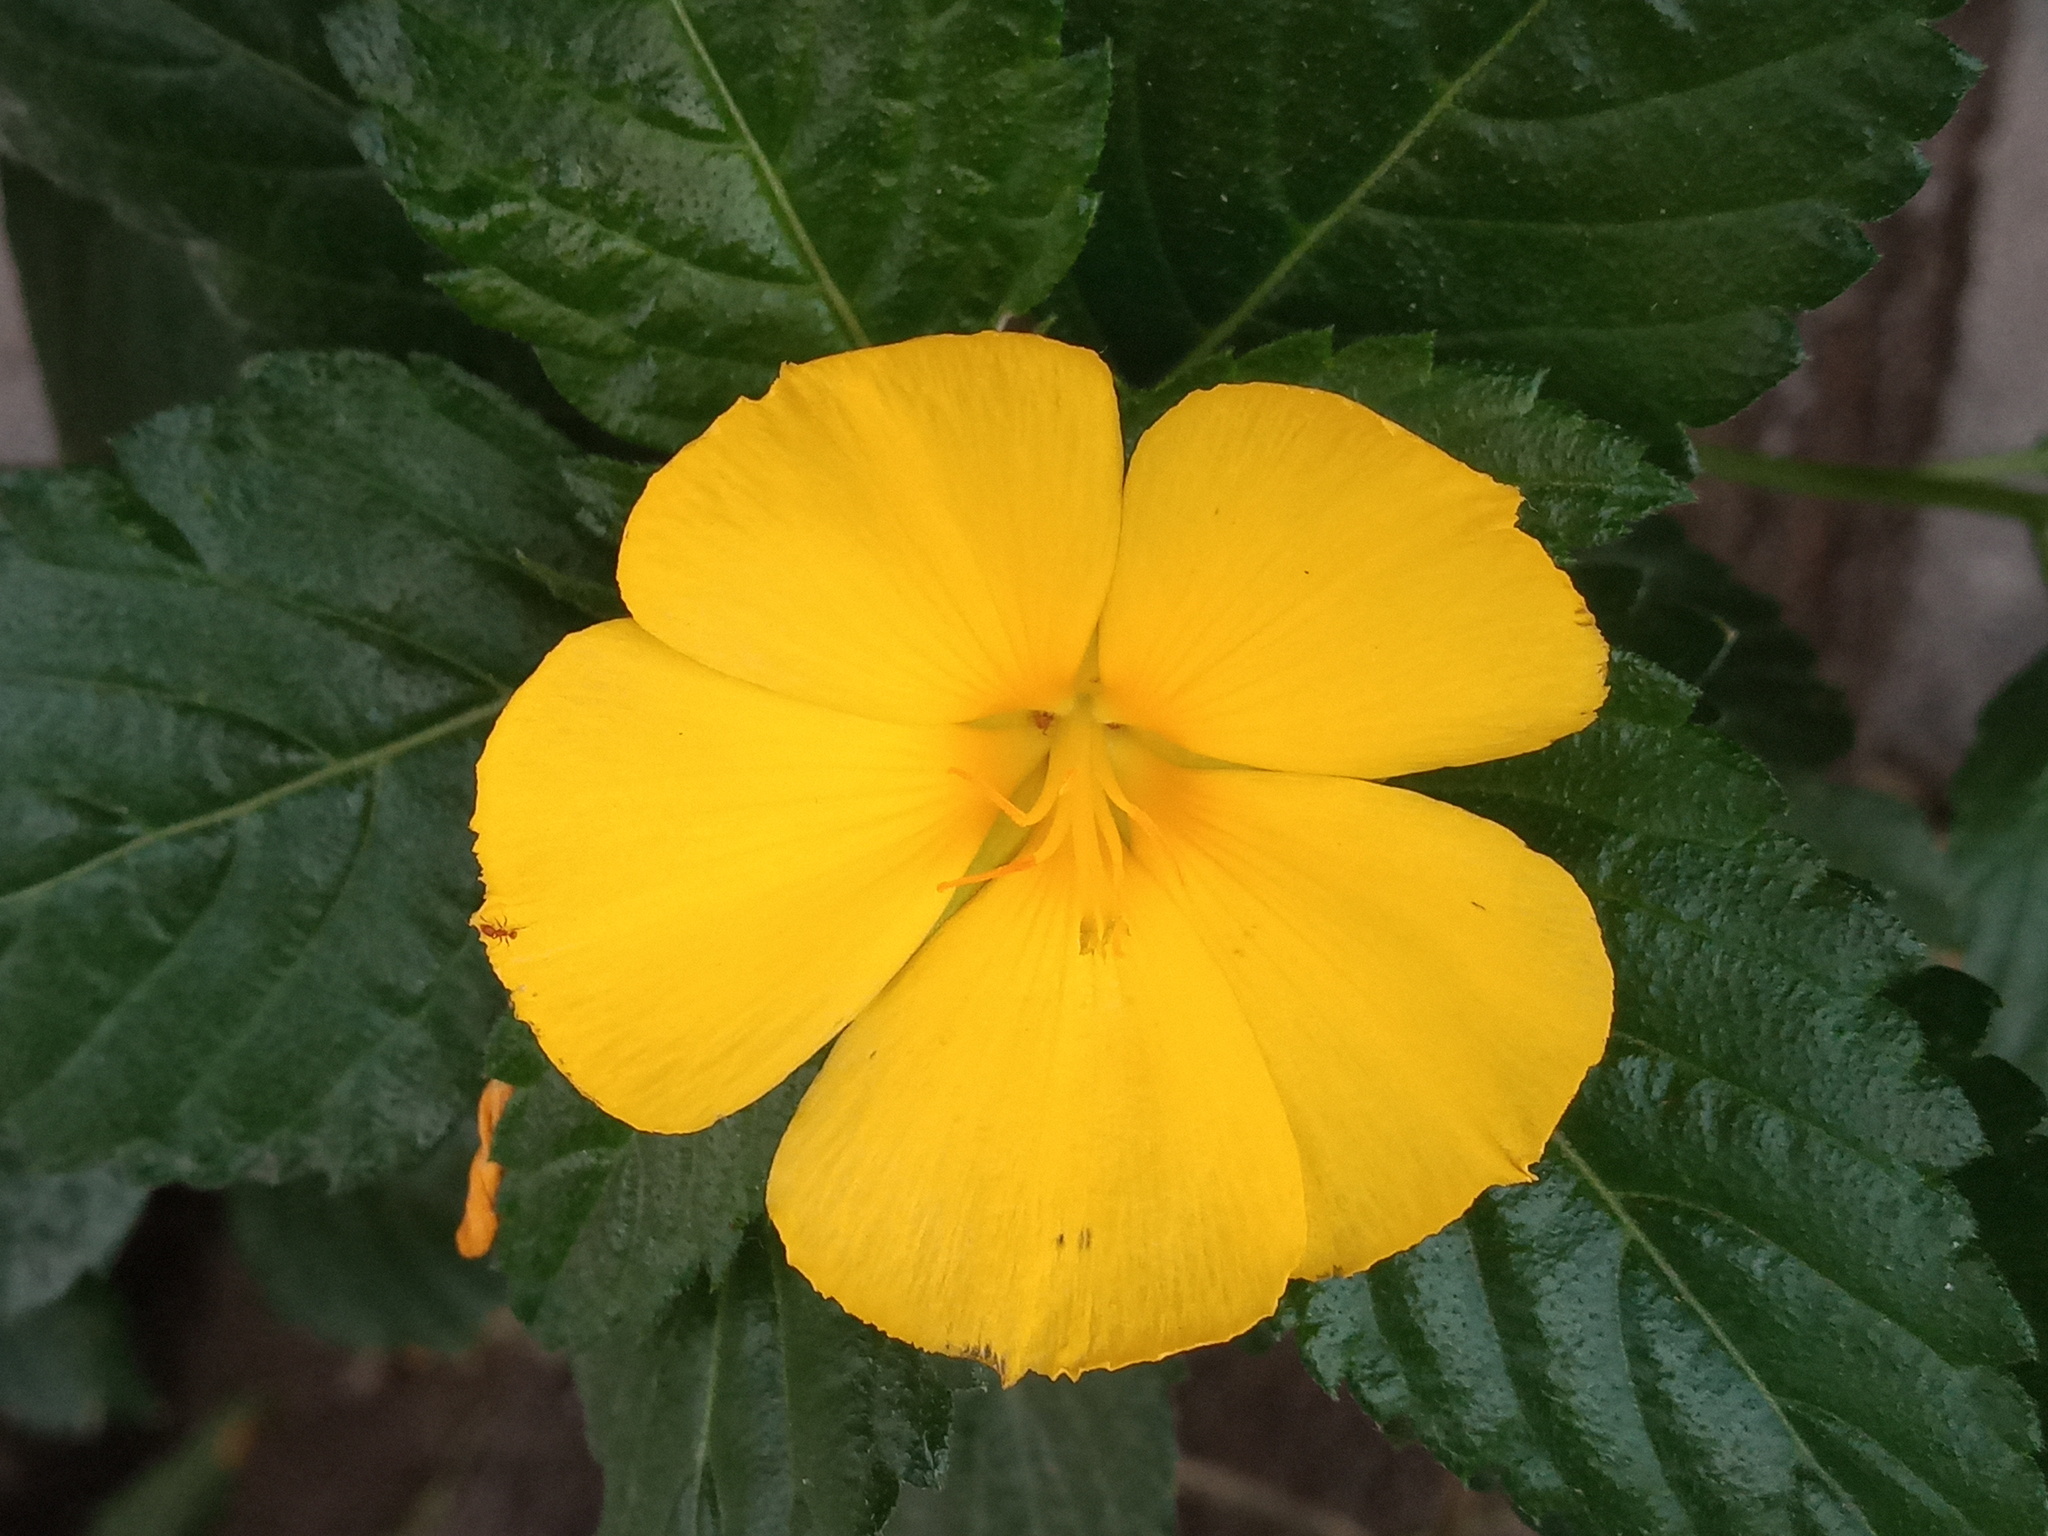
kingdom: Plantae
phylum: Tracheophyta
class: Magnoliopsida
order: Malpighiales
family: Turneraceae
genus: Turnera
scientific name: Turnera ulmifolia
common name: Ramgoat dashalong
